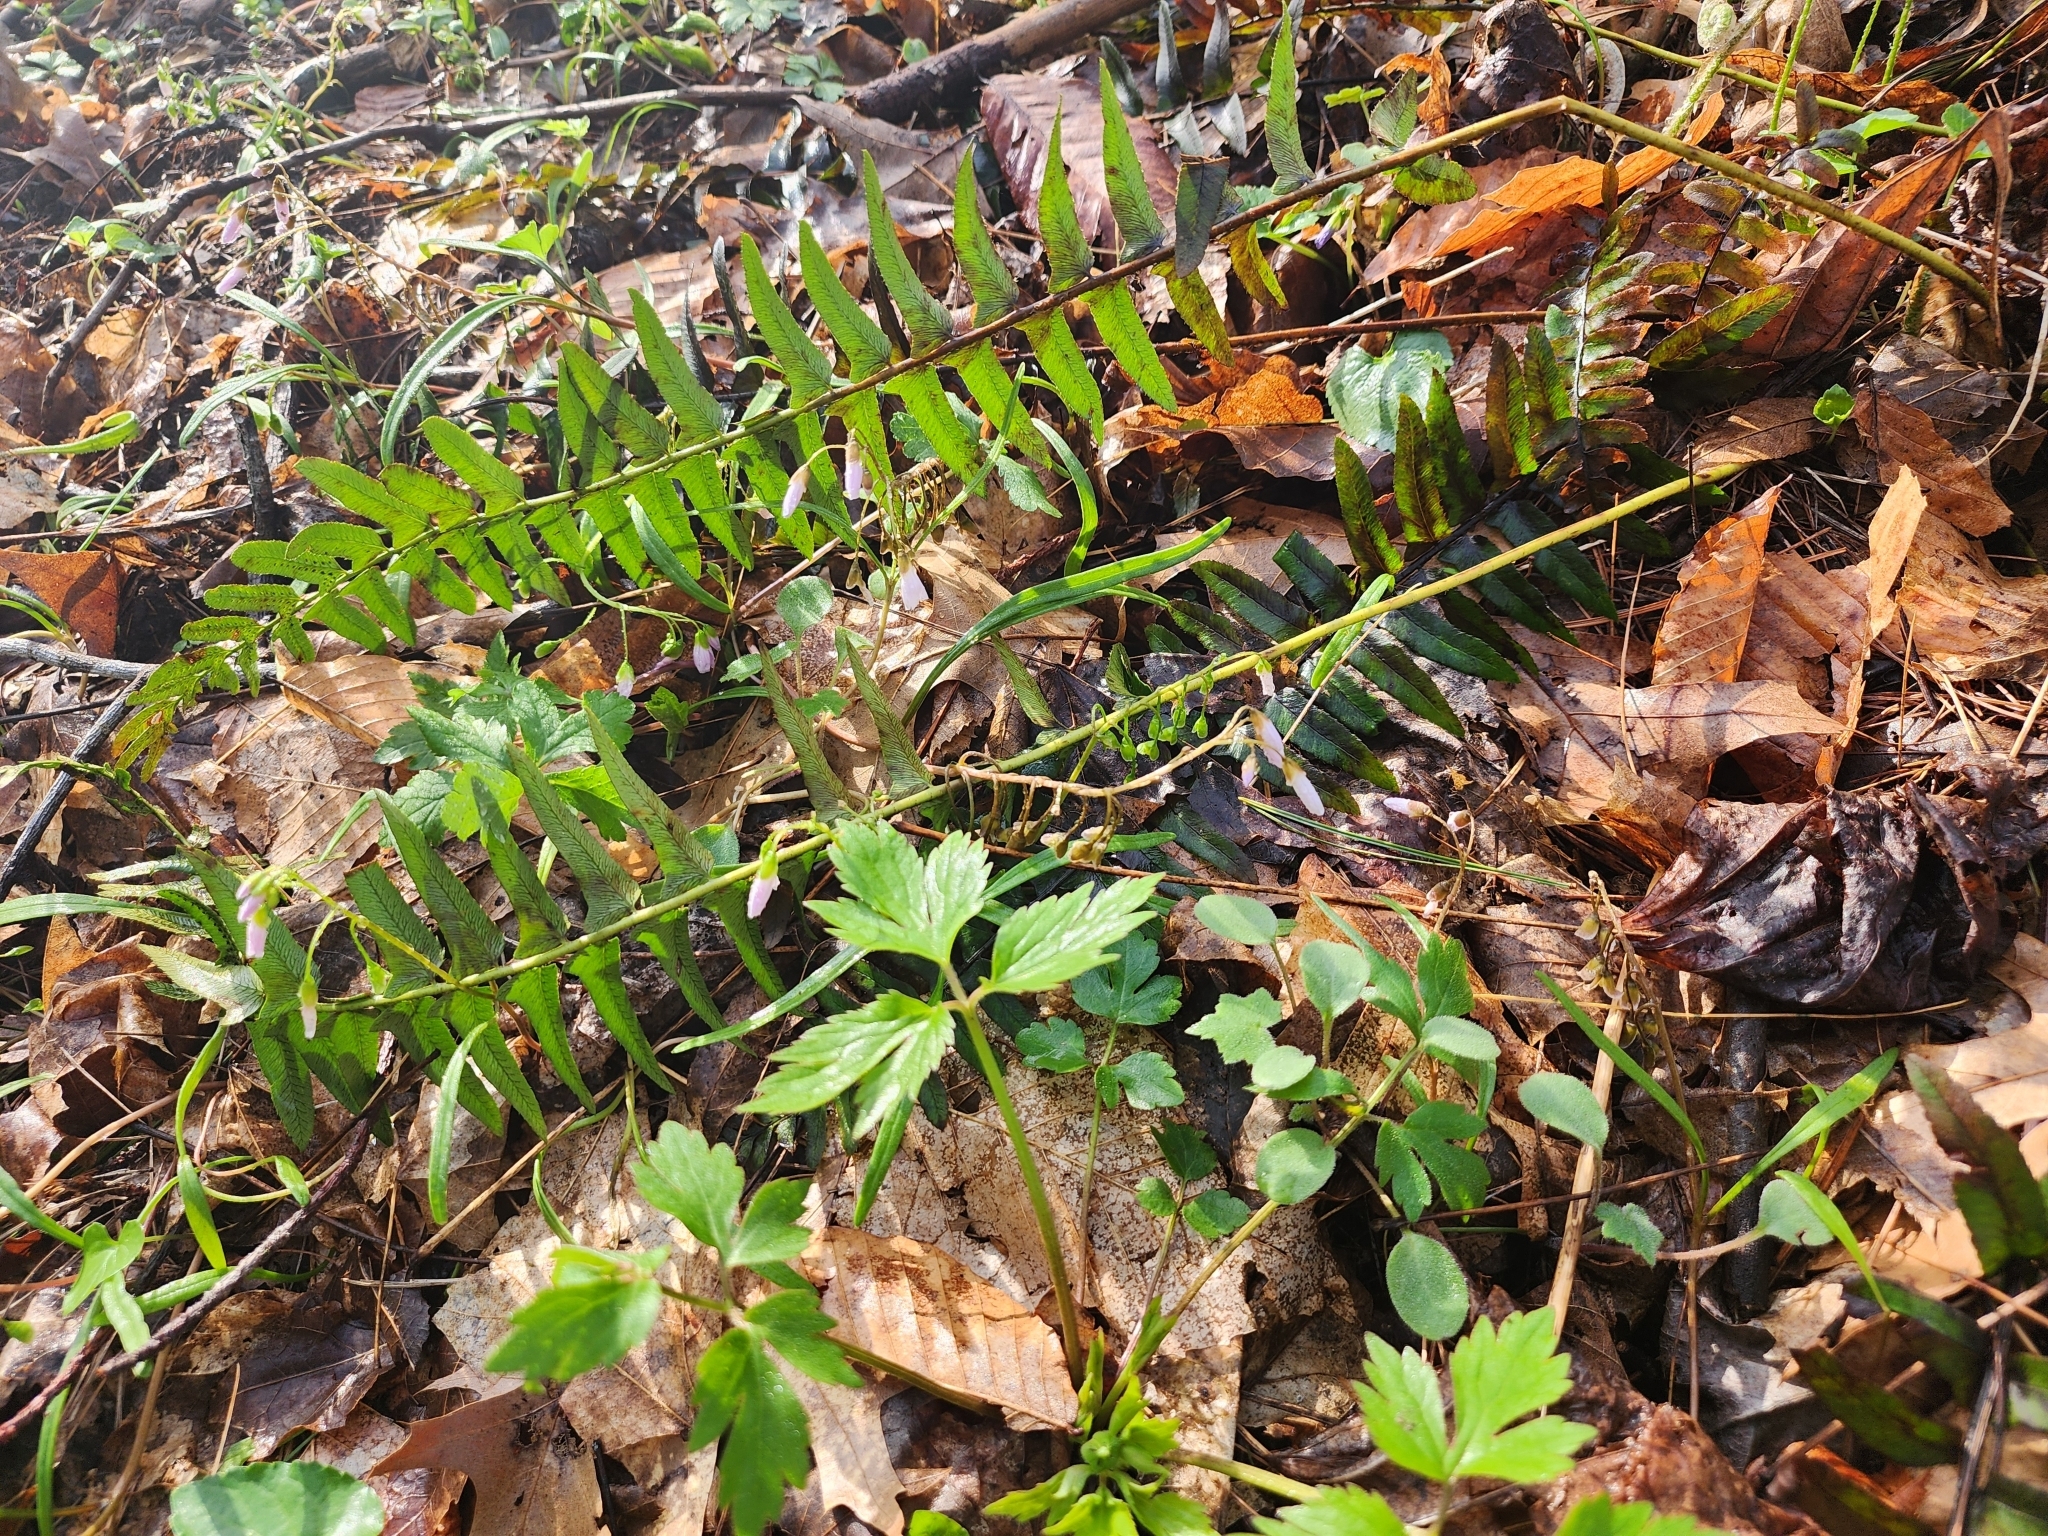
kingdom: Plantae
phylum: Tracheophyta
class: Polypodiopsida
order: Polypodiales
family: Dryopteridaceae
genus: Polystichum
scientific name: Polystichum acrostichoides
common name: Christmas fern
